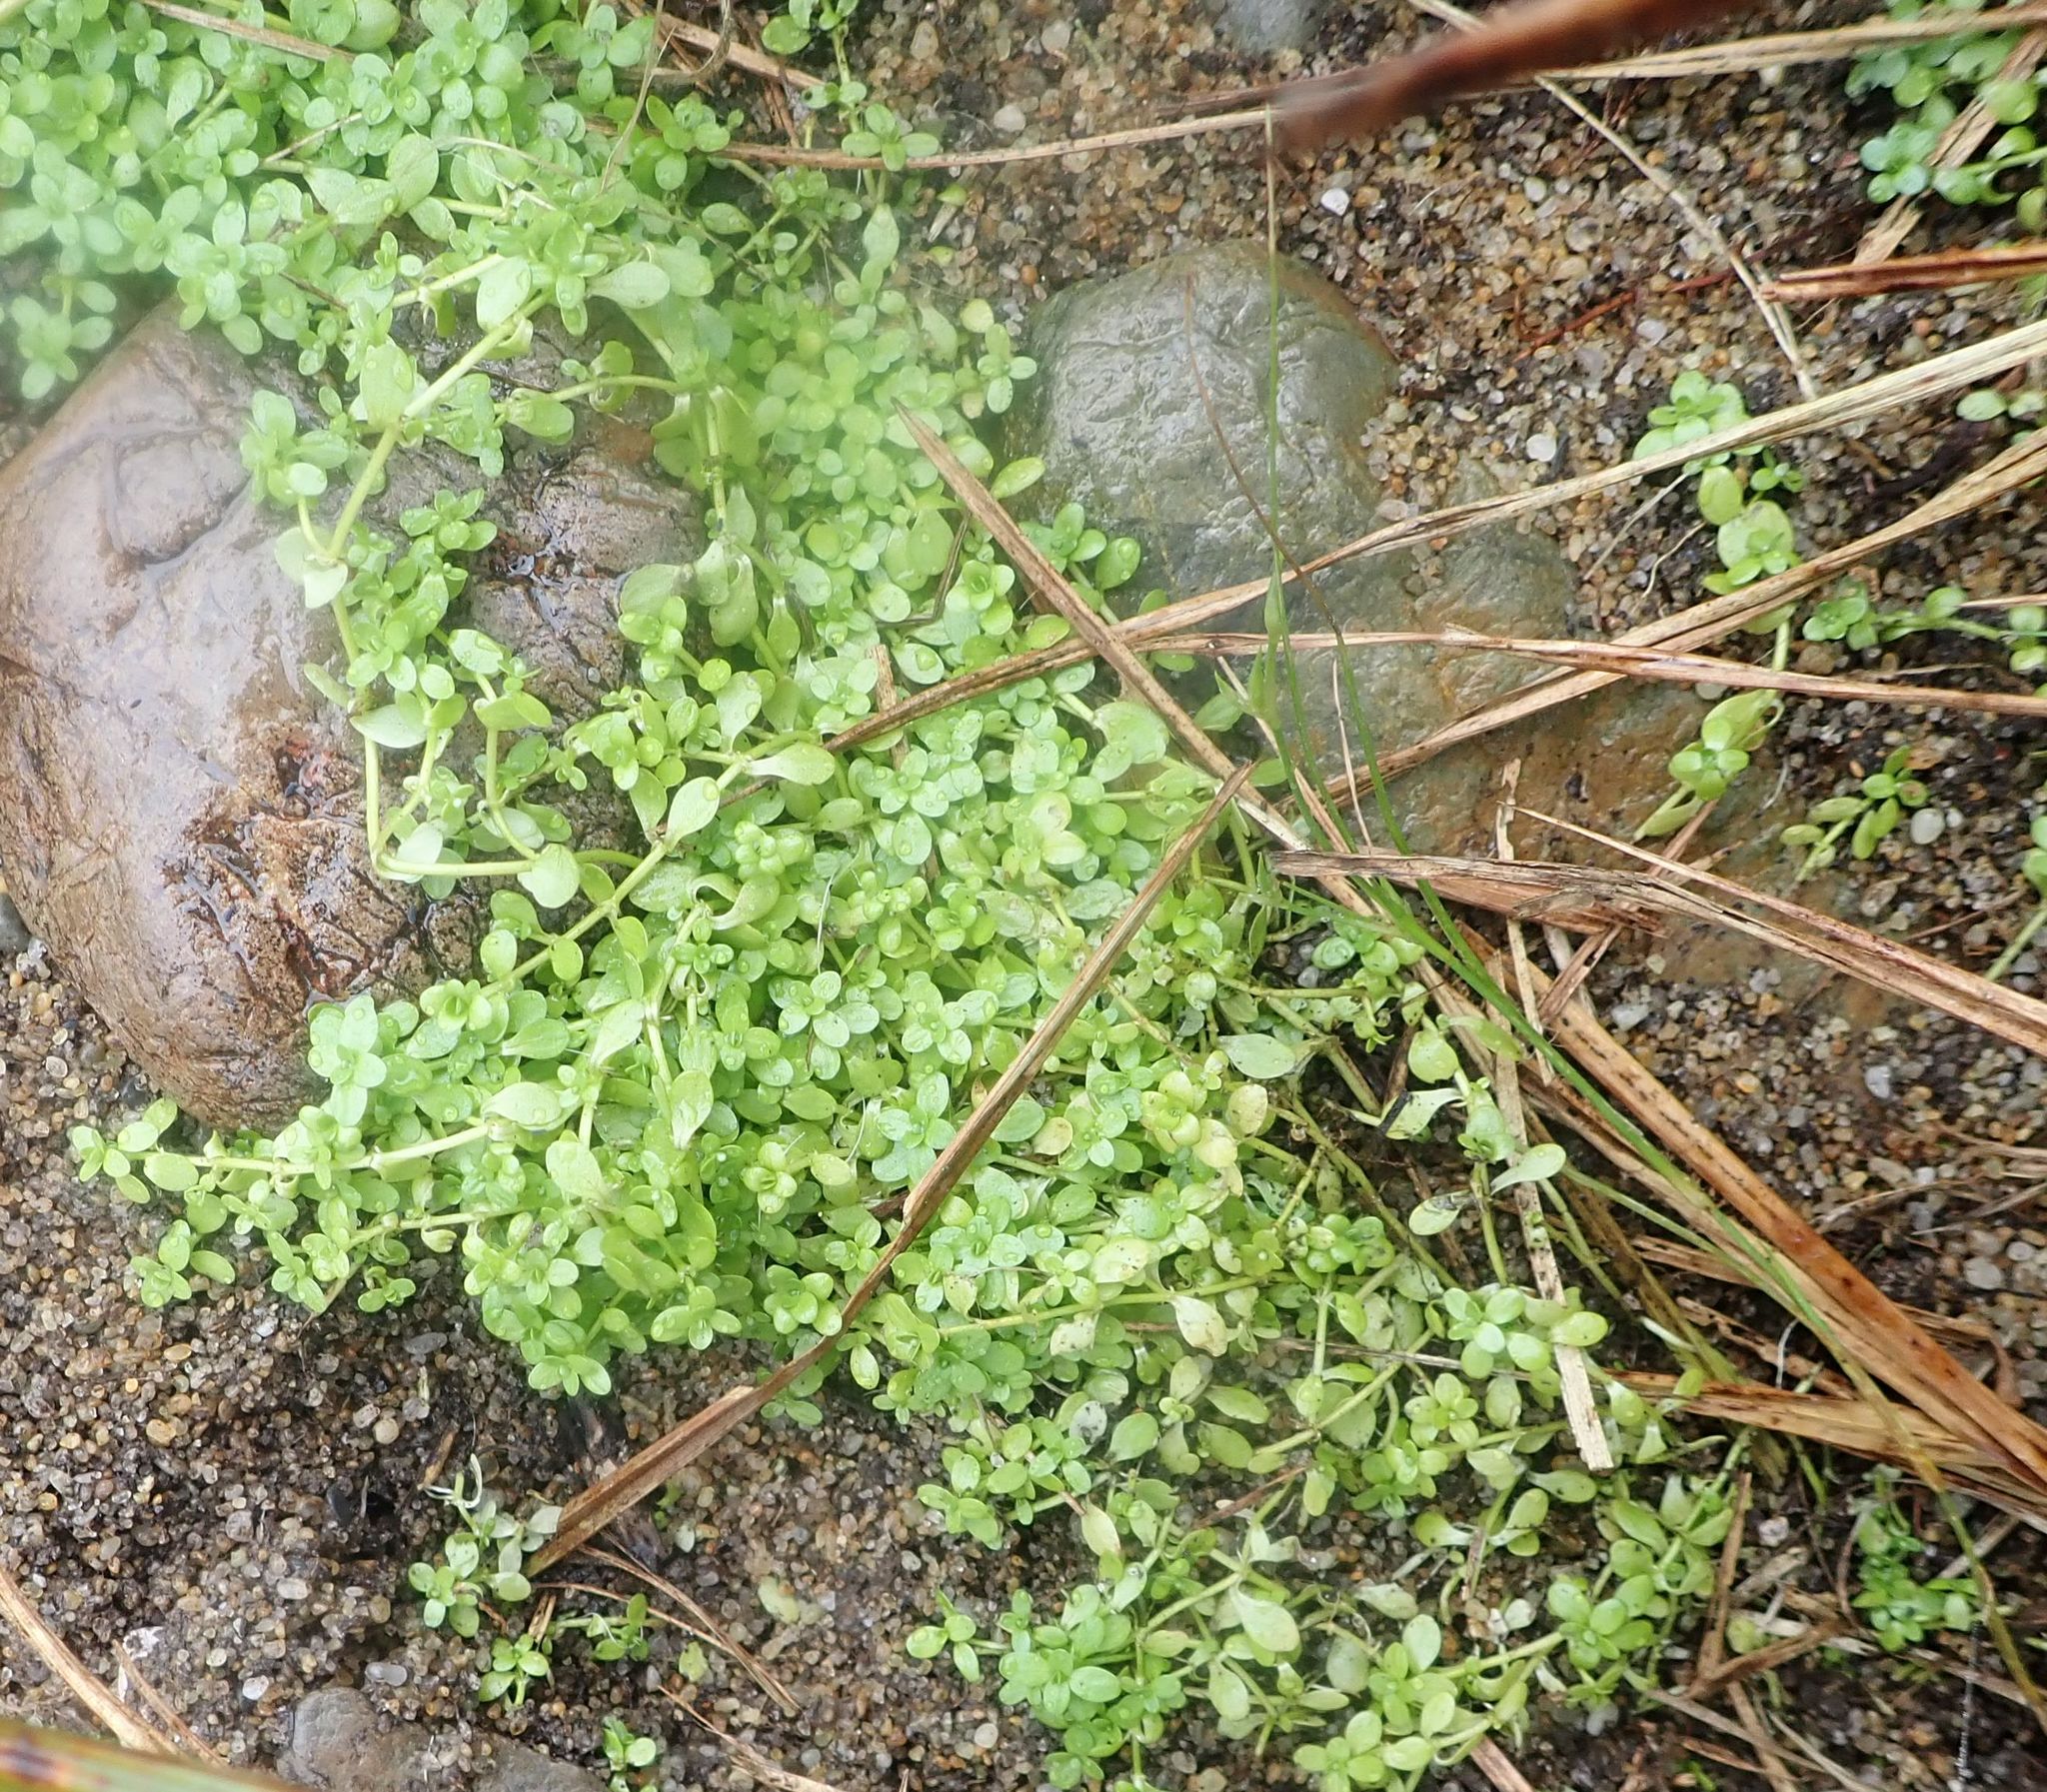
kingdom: Plantae
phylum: Tracheophyta
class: Magnoliopsida
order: Lamiales
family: Plantaginaceae
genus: Callitriche
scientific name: Callitriche stagnalis
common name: Common water-starwort
